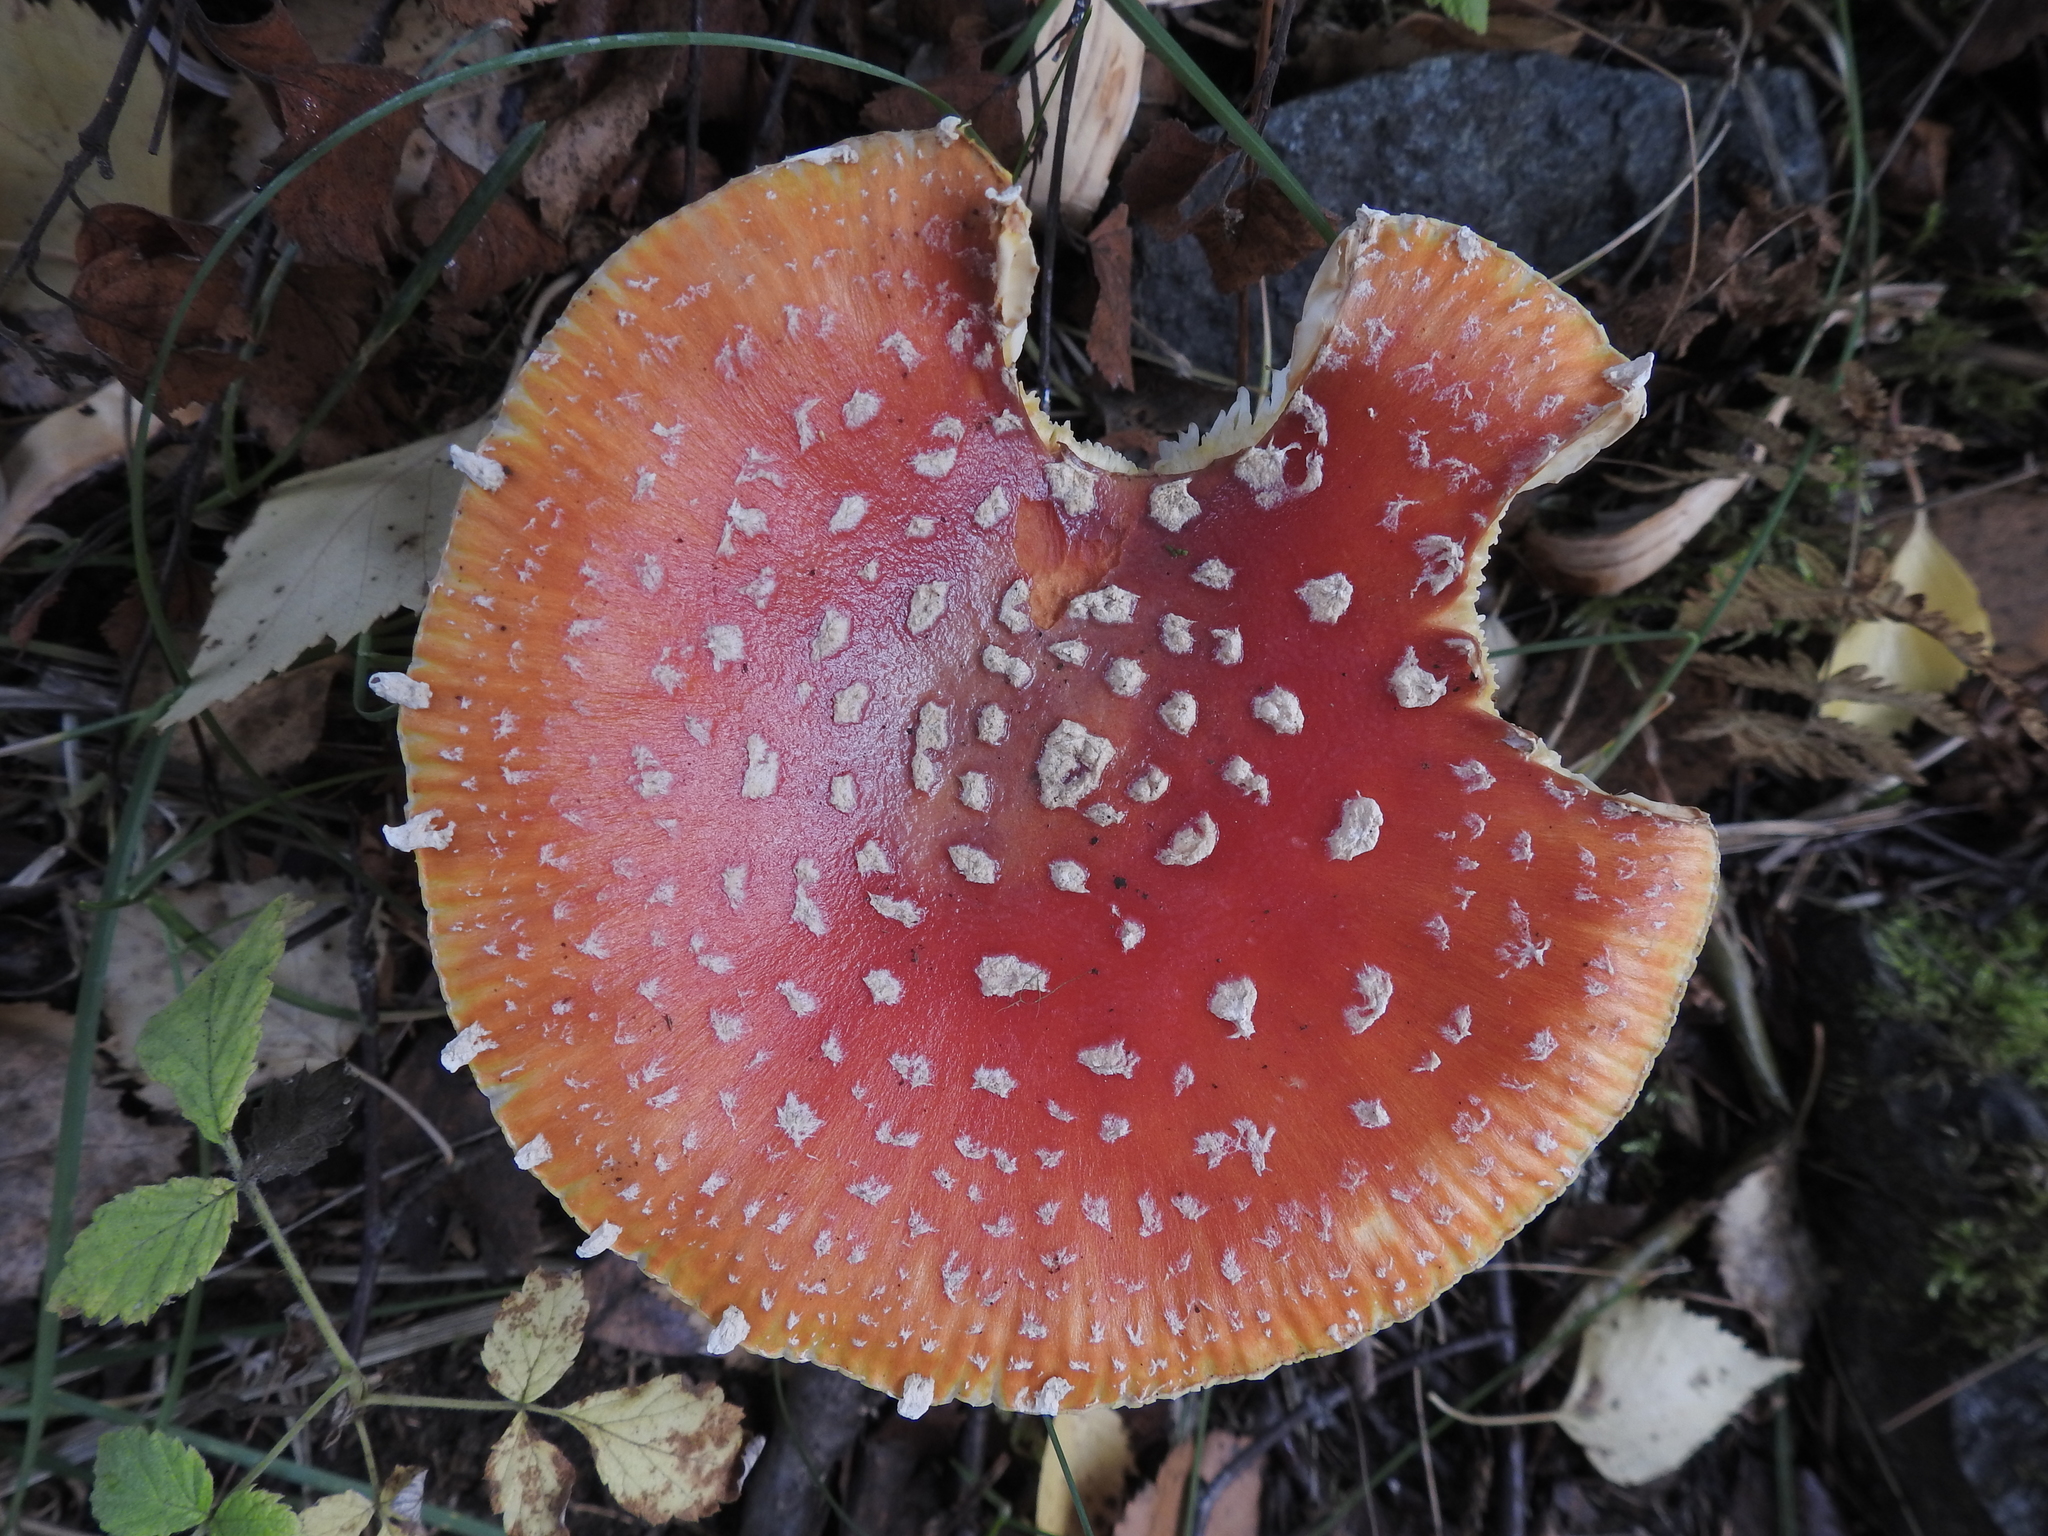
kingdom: Fungi
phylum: Basidiomycota
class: Agaricomycetes
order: Agaricales
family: Amanitaceae
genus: Amanita
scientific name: Amanita muscaria
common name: Fly agaric
